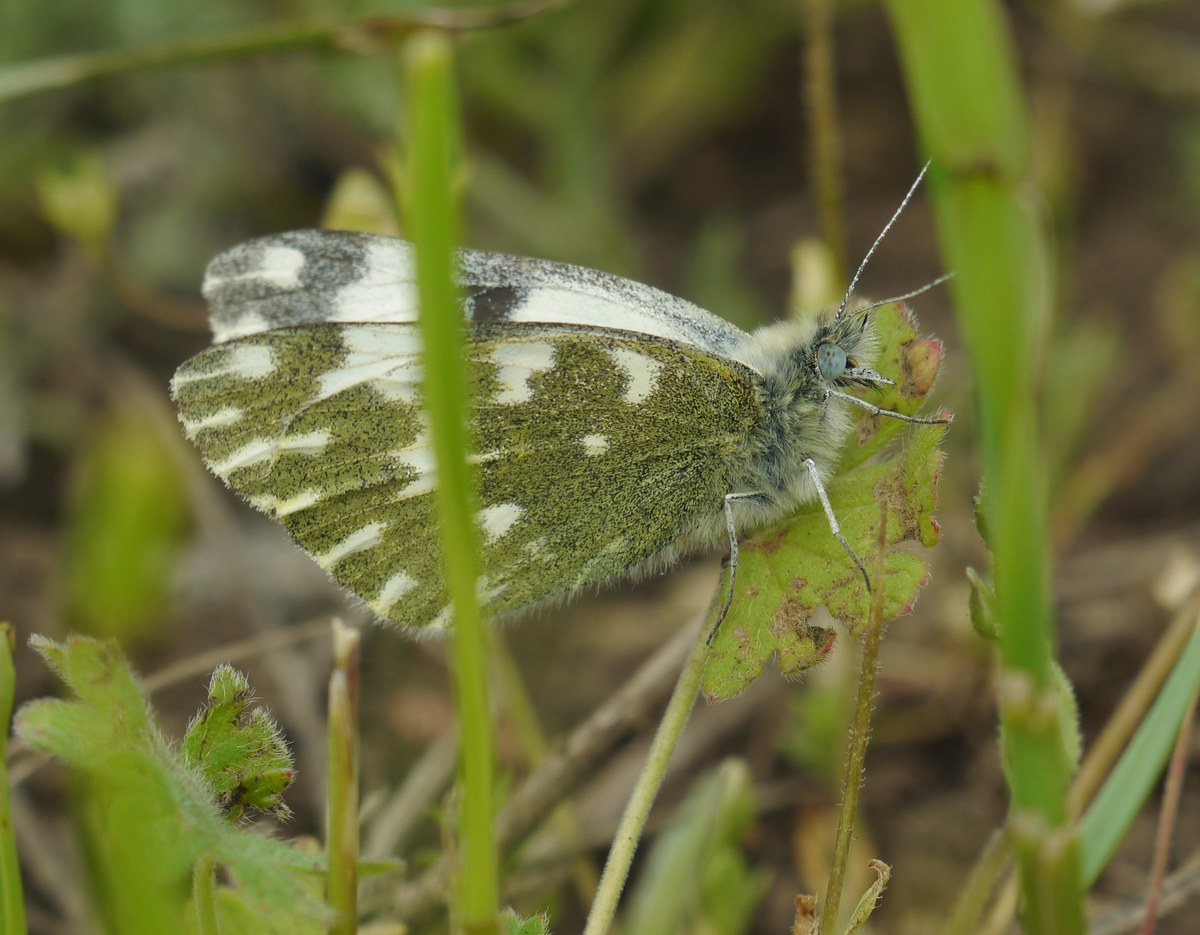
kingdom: Animalia
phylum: Arthropoda
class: Insecta
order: Lepidoptera
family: Pieridae
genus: Pontia
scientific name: Pontia edusa
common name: Eastern bath white
